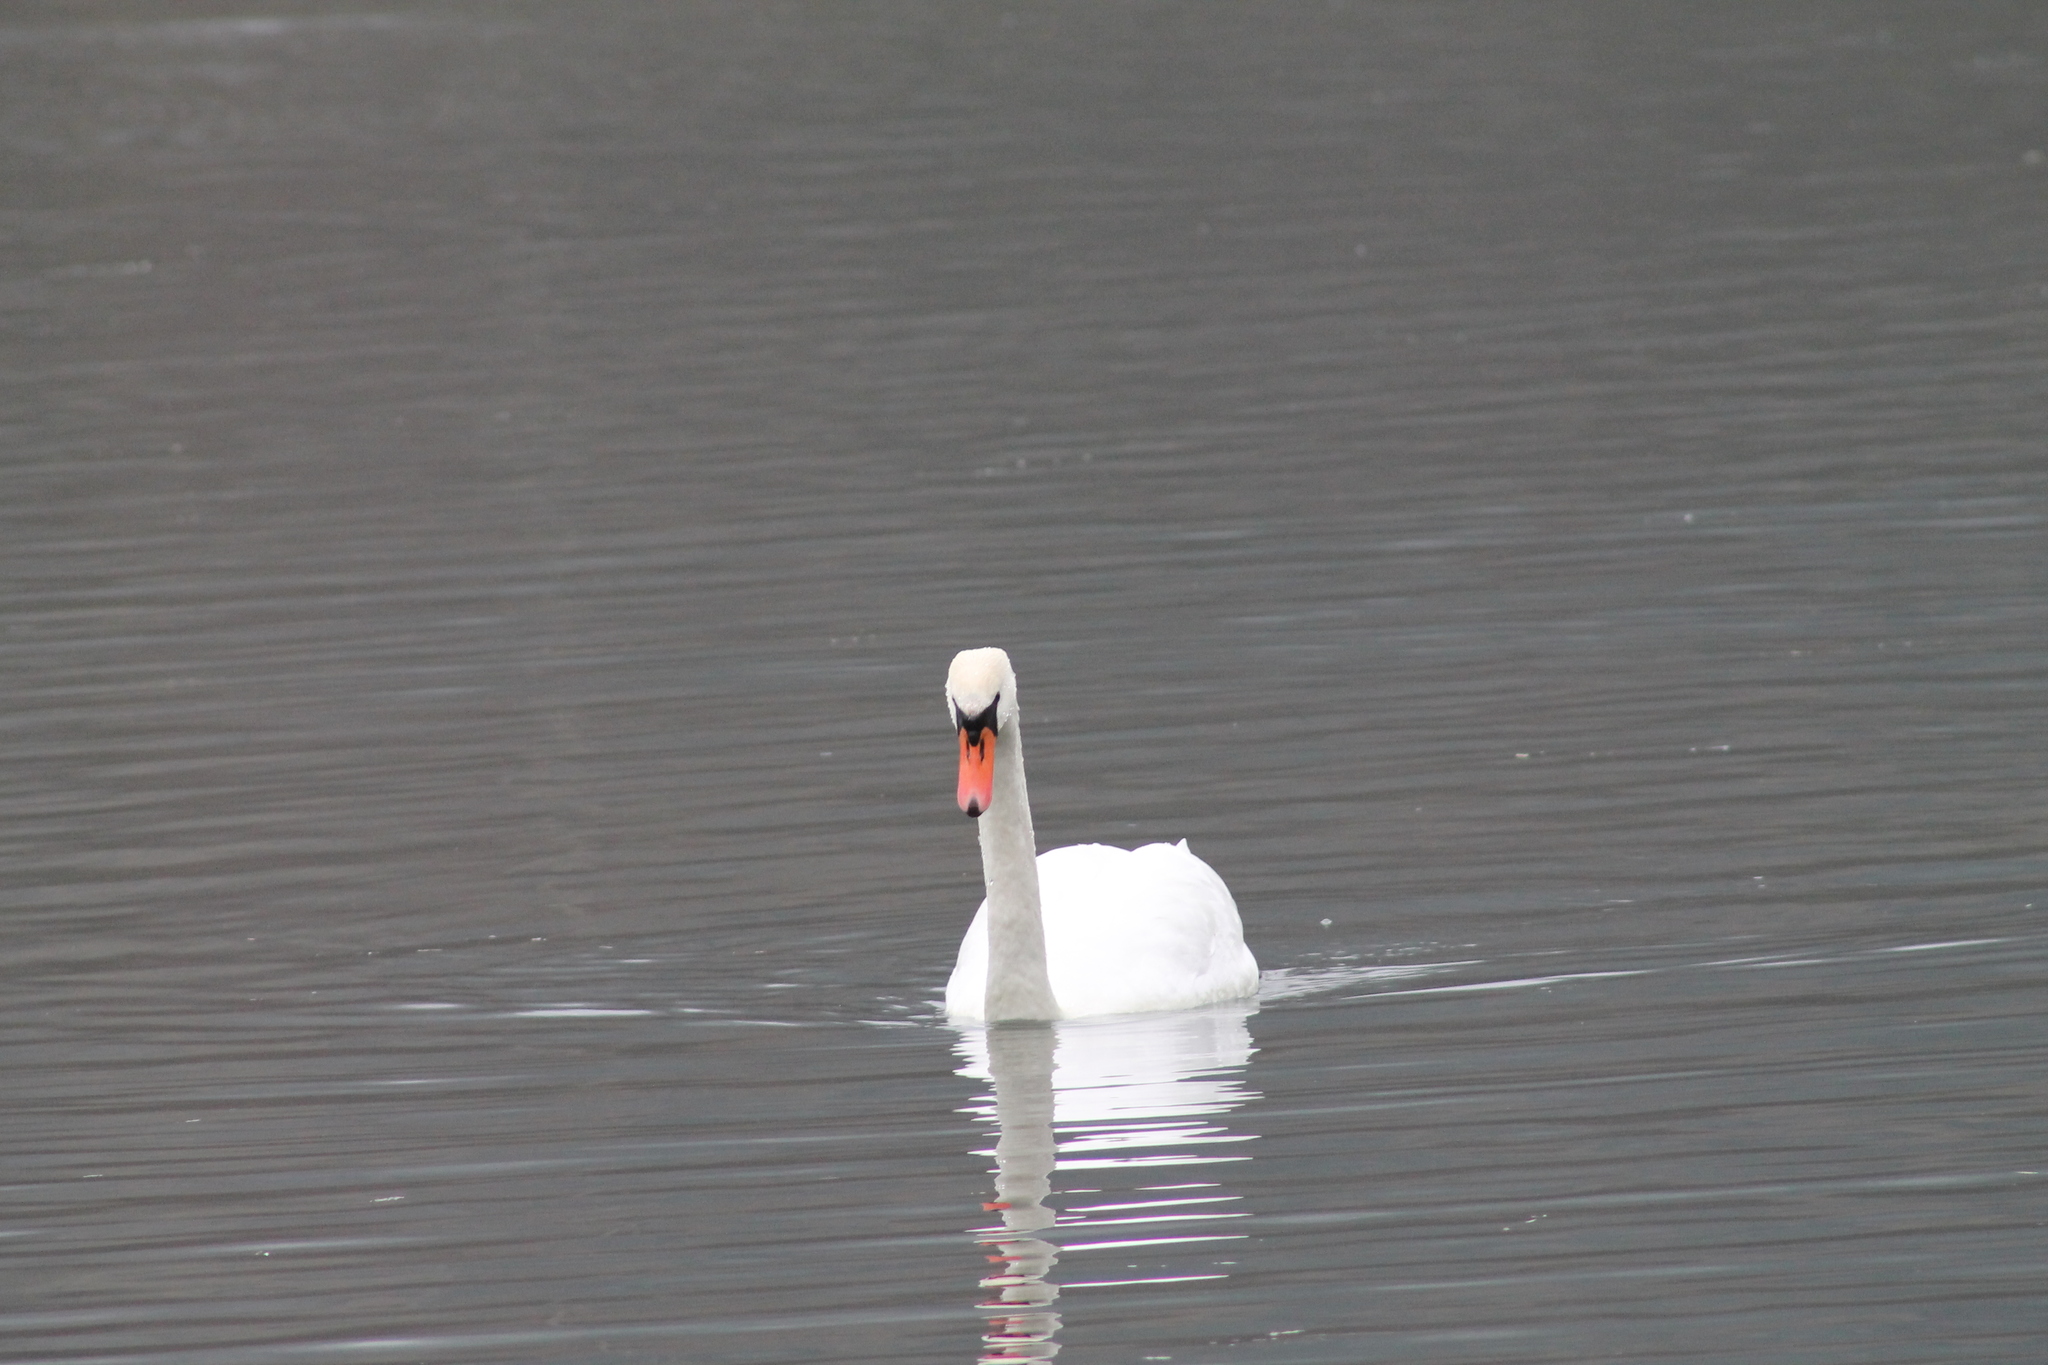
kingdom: Animalia
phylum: Chordata
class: Aves
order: Anseriformes
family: Anatidae
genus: Cygnus
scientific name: Cygnus olor
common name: Mute swan
